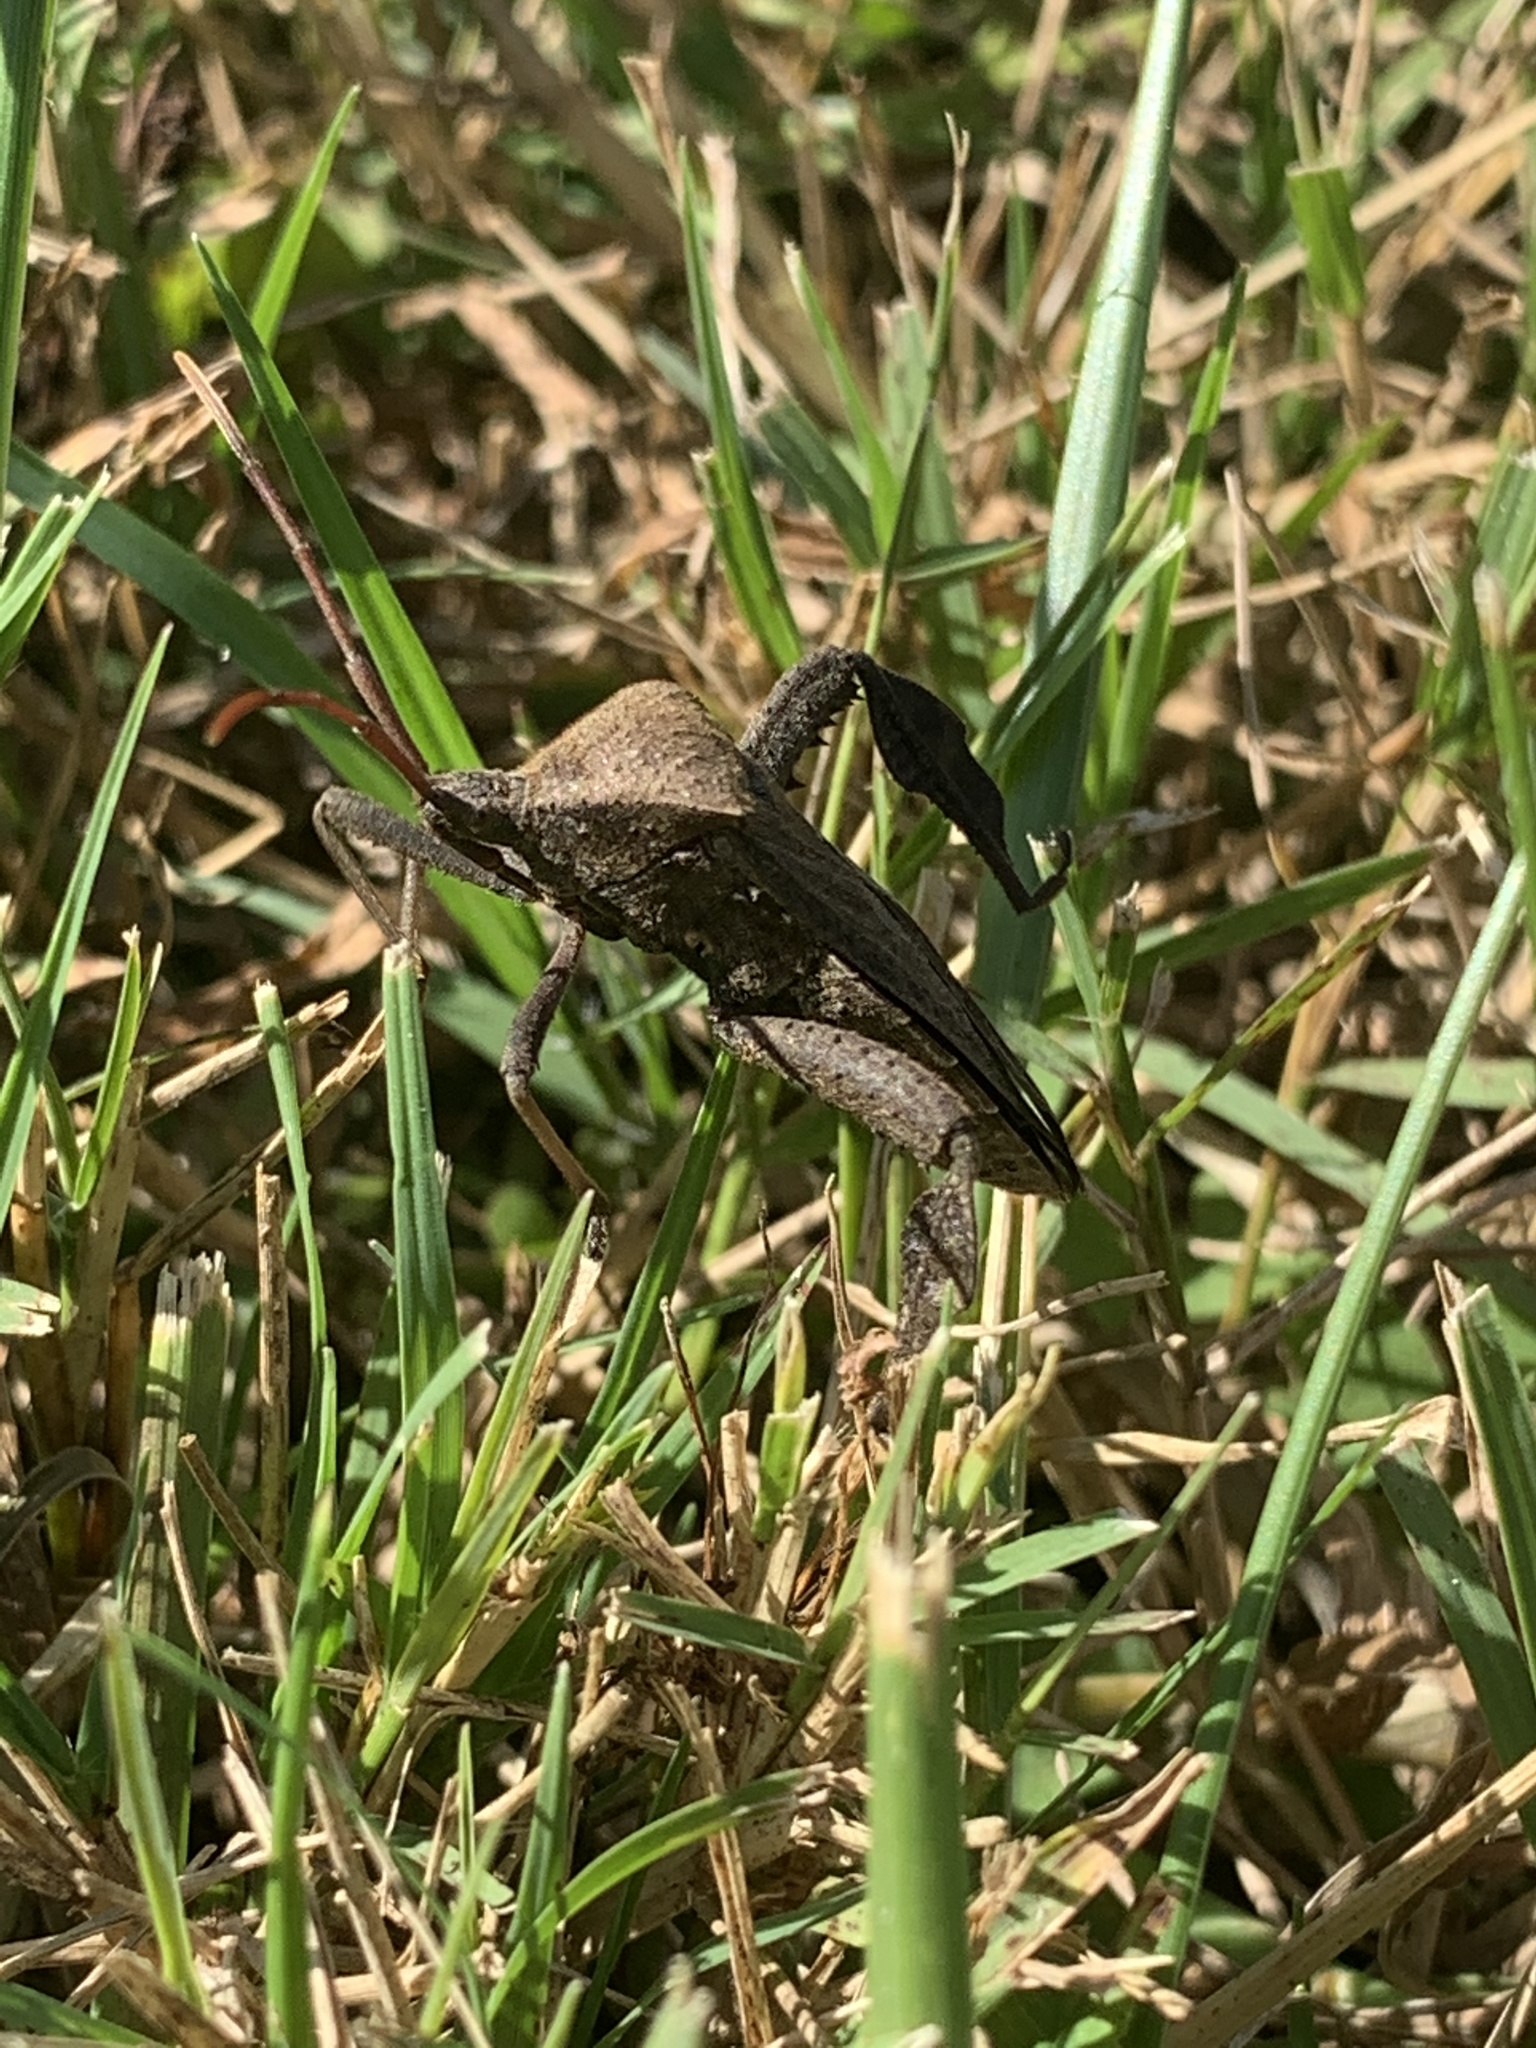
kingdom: Animalia
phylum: Arthropoda
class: Insecta
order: Hemiptera
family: Coreidae
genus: Acanthocephala
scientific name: Acanthocephala femorata
